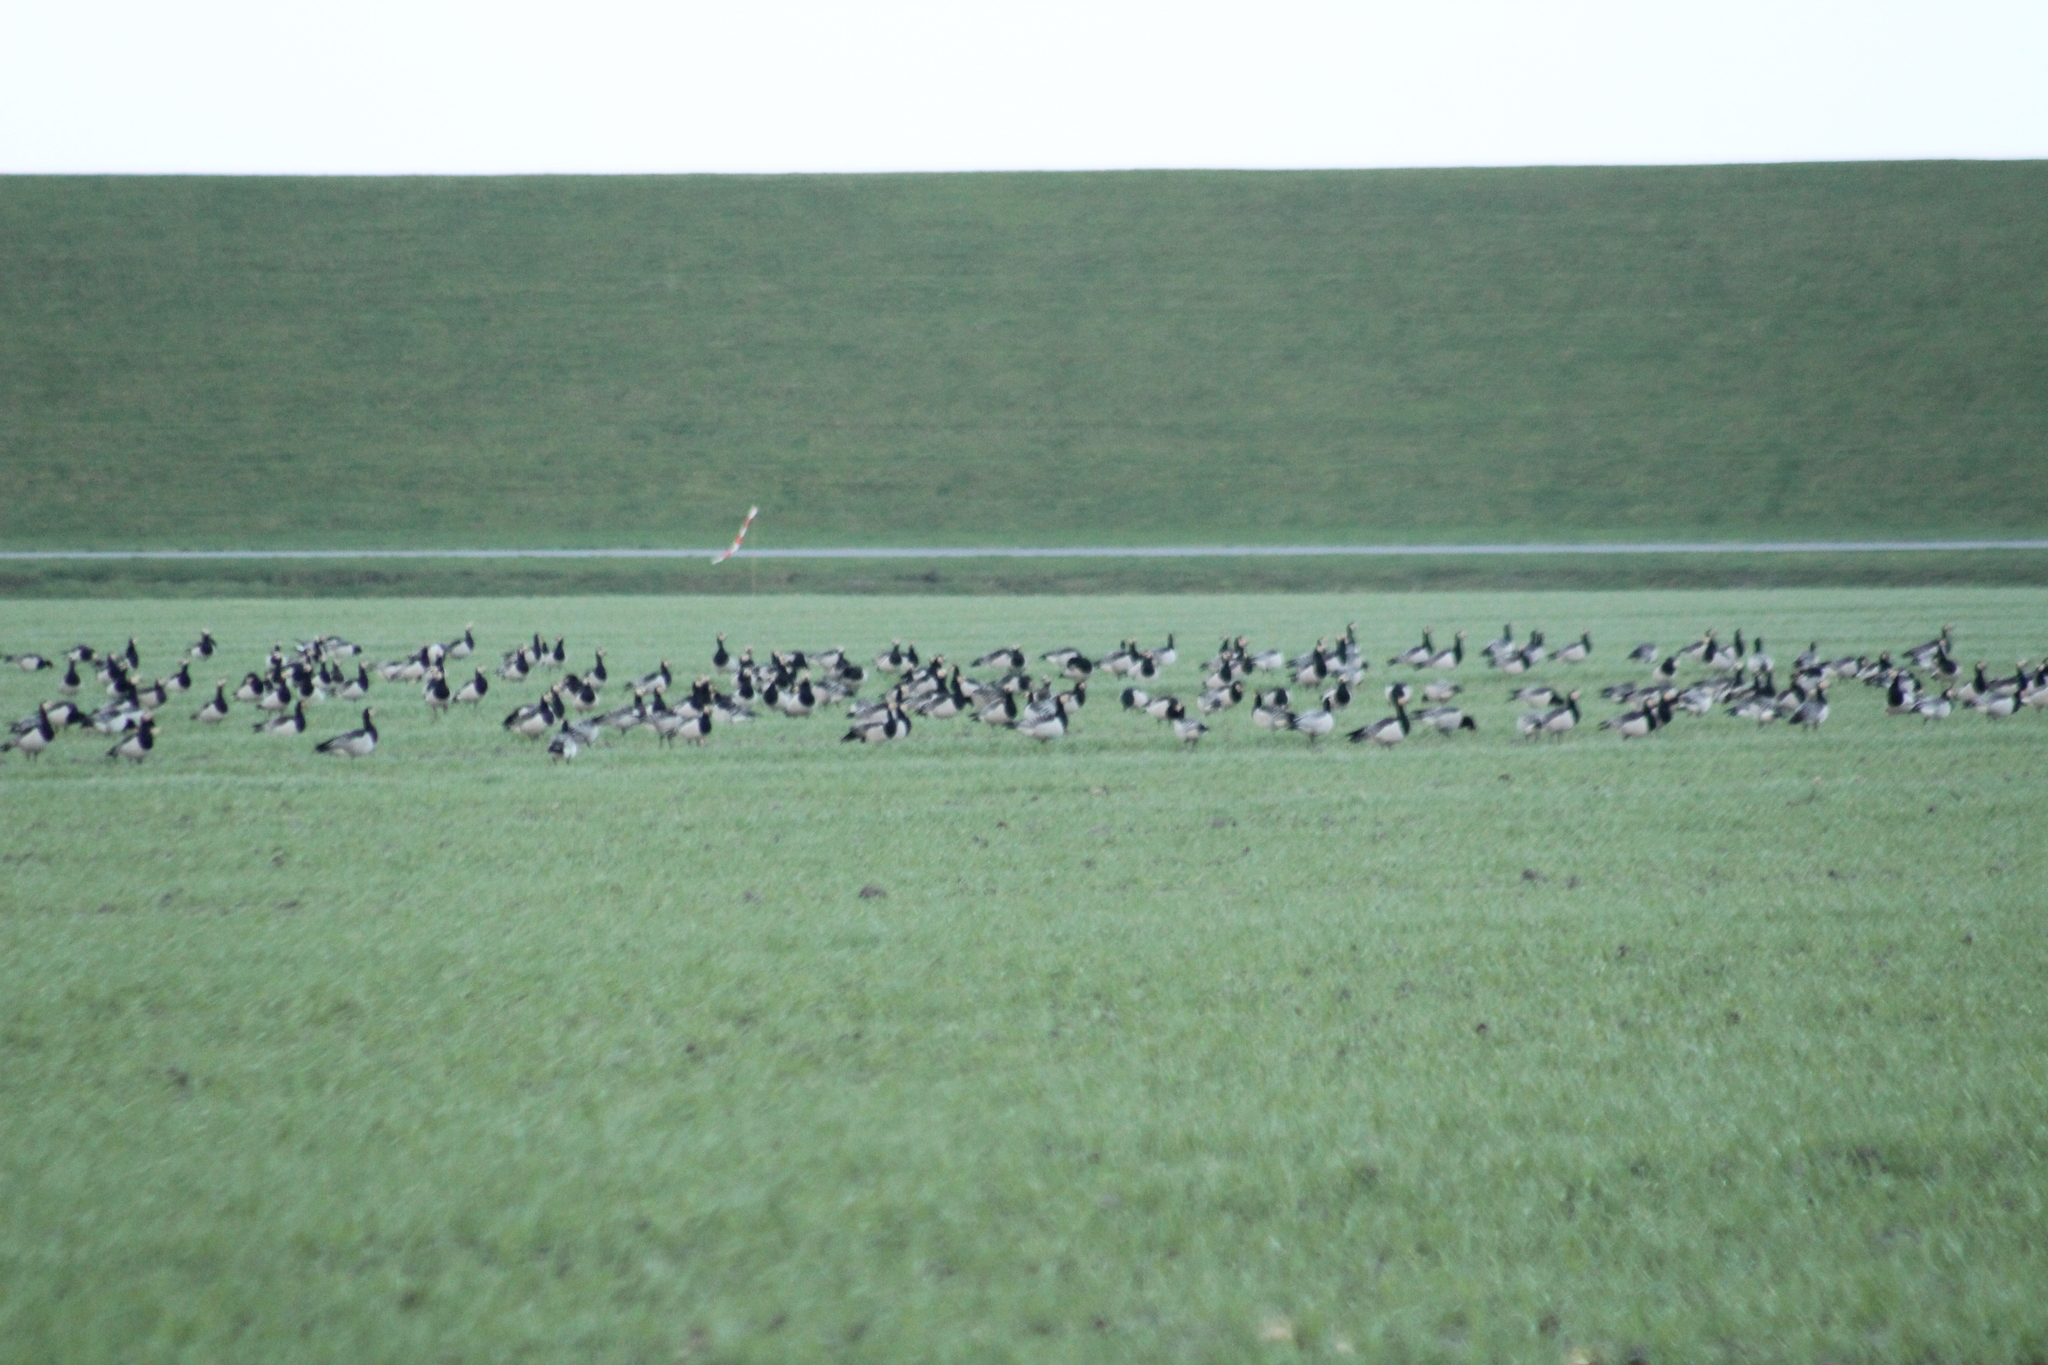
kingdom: Animalia
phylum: Chordata
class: Aves
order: Anseriformes
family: Anatidae
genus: Branta
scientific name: Branta leucopsis
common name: Barnacle goose
